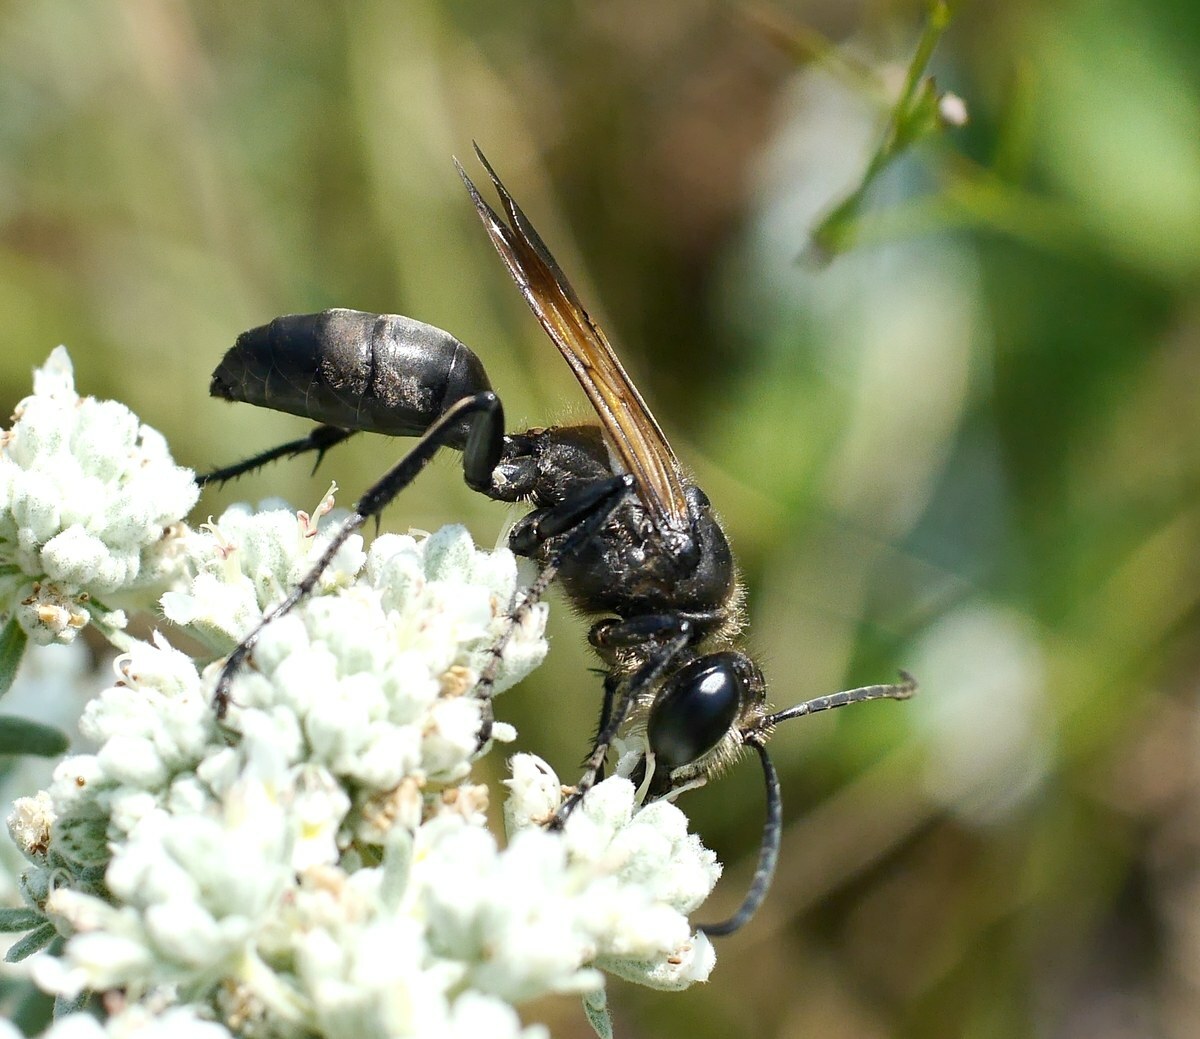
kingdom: Animalia
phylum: Arthropoda
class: Insecta
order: Hymenoptera
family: Sphecidae
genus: Sphex
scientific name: Sphex leuconotus
